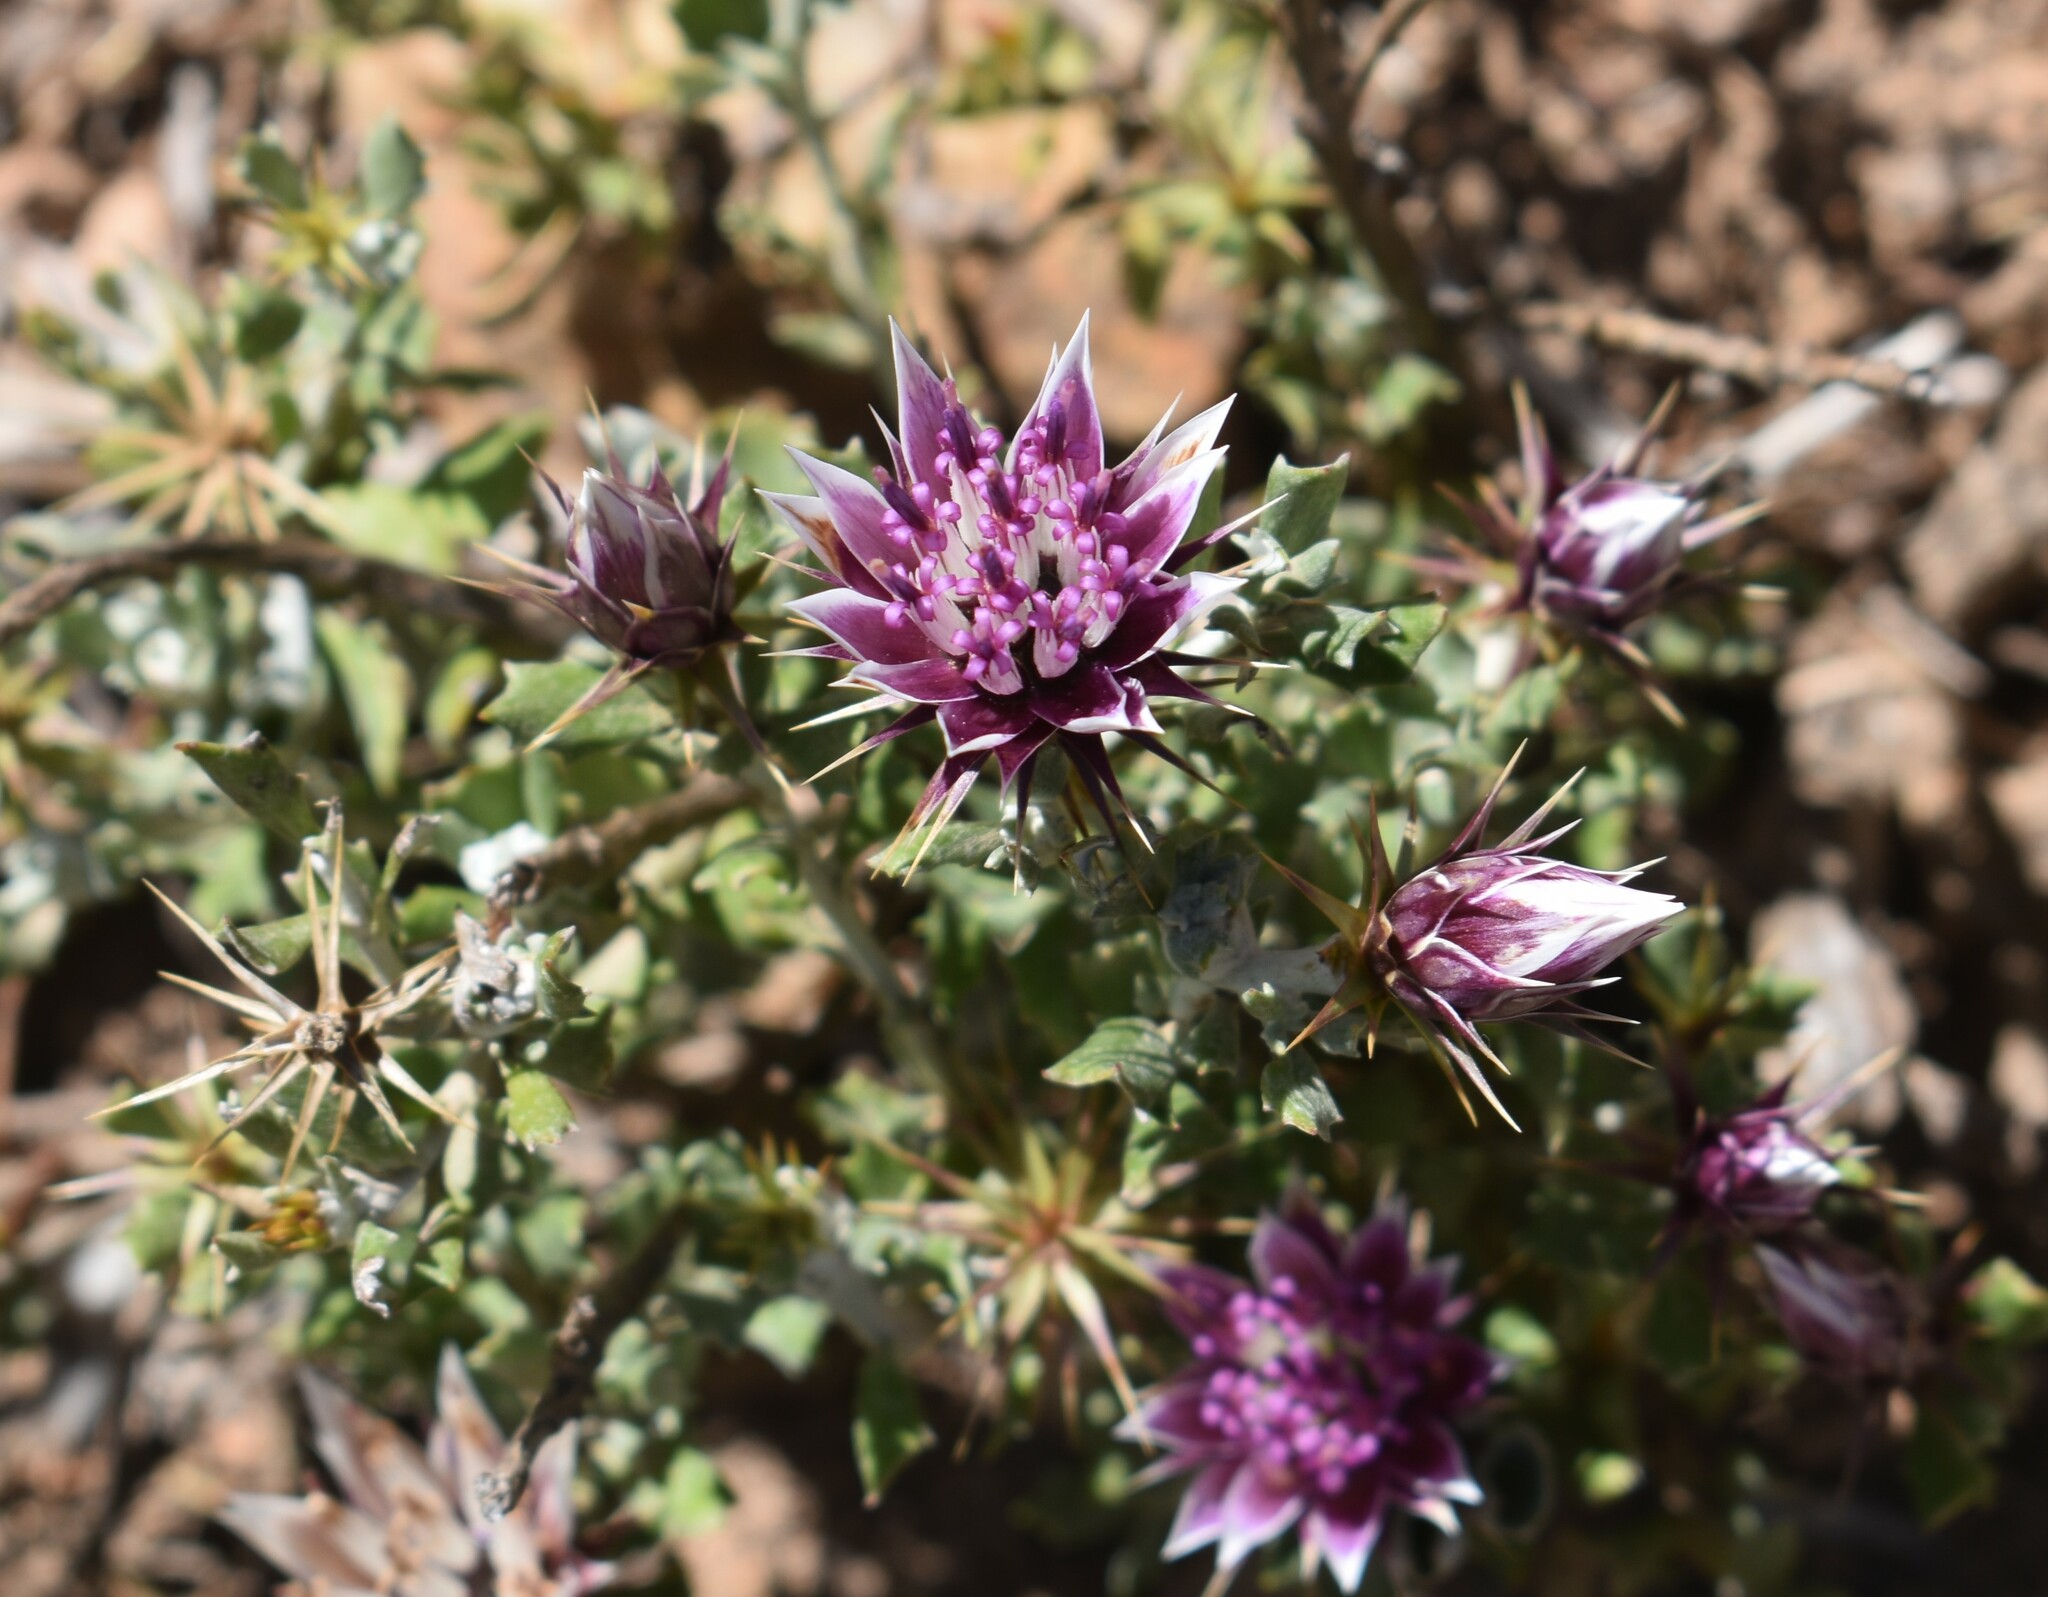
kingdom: Plantae
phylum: Tracheophyta
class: Magnoliopsida
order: Asterales
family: Asteraceae
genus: Macledium
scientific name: Macledium spinosum
